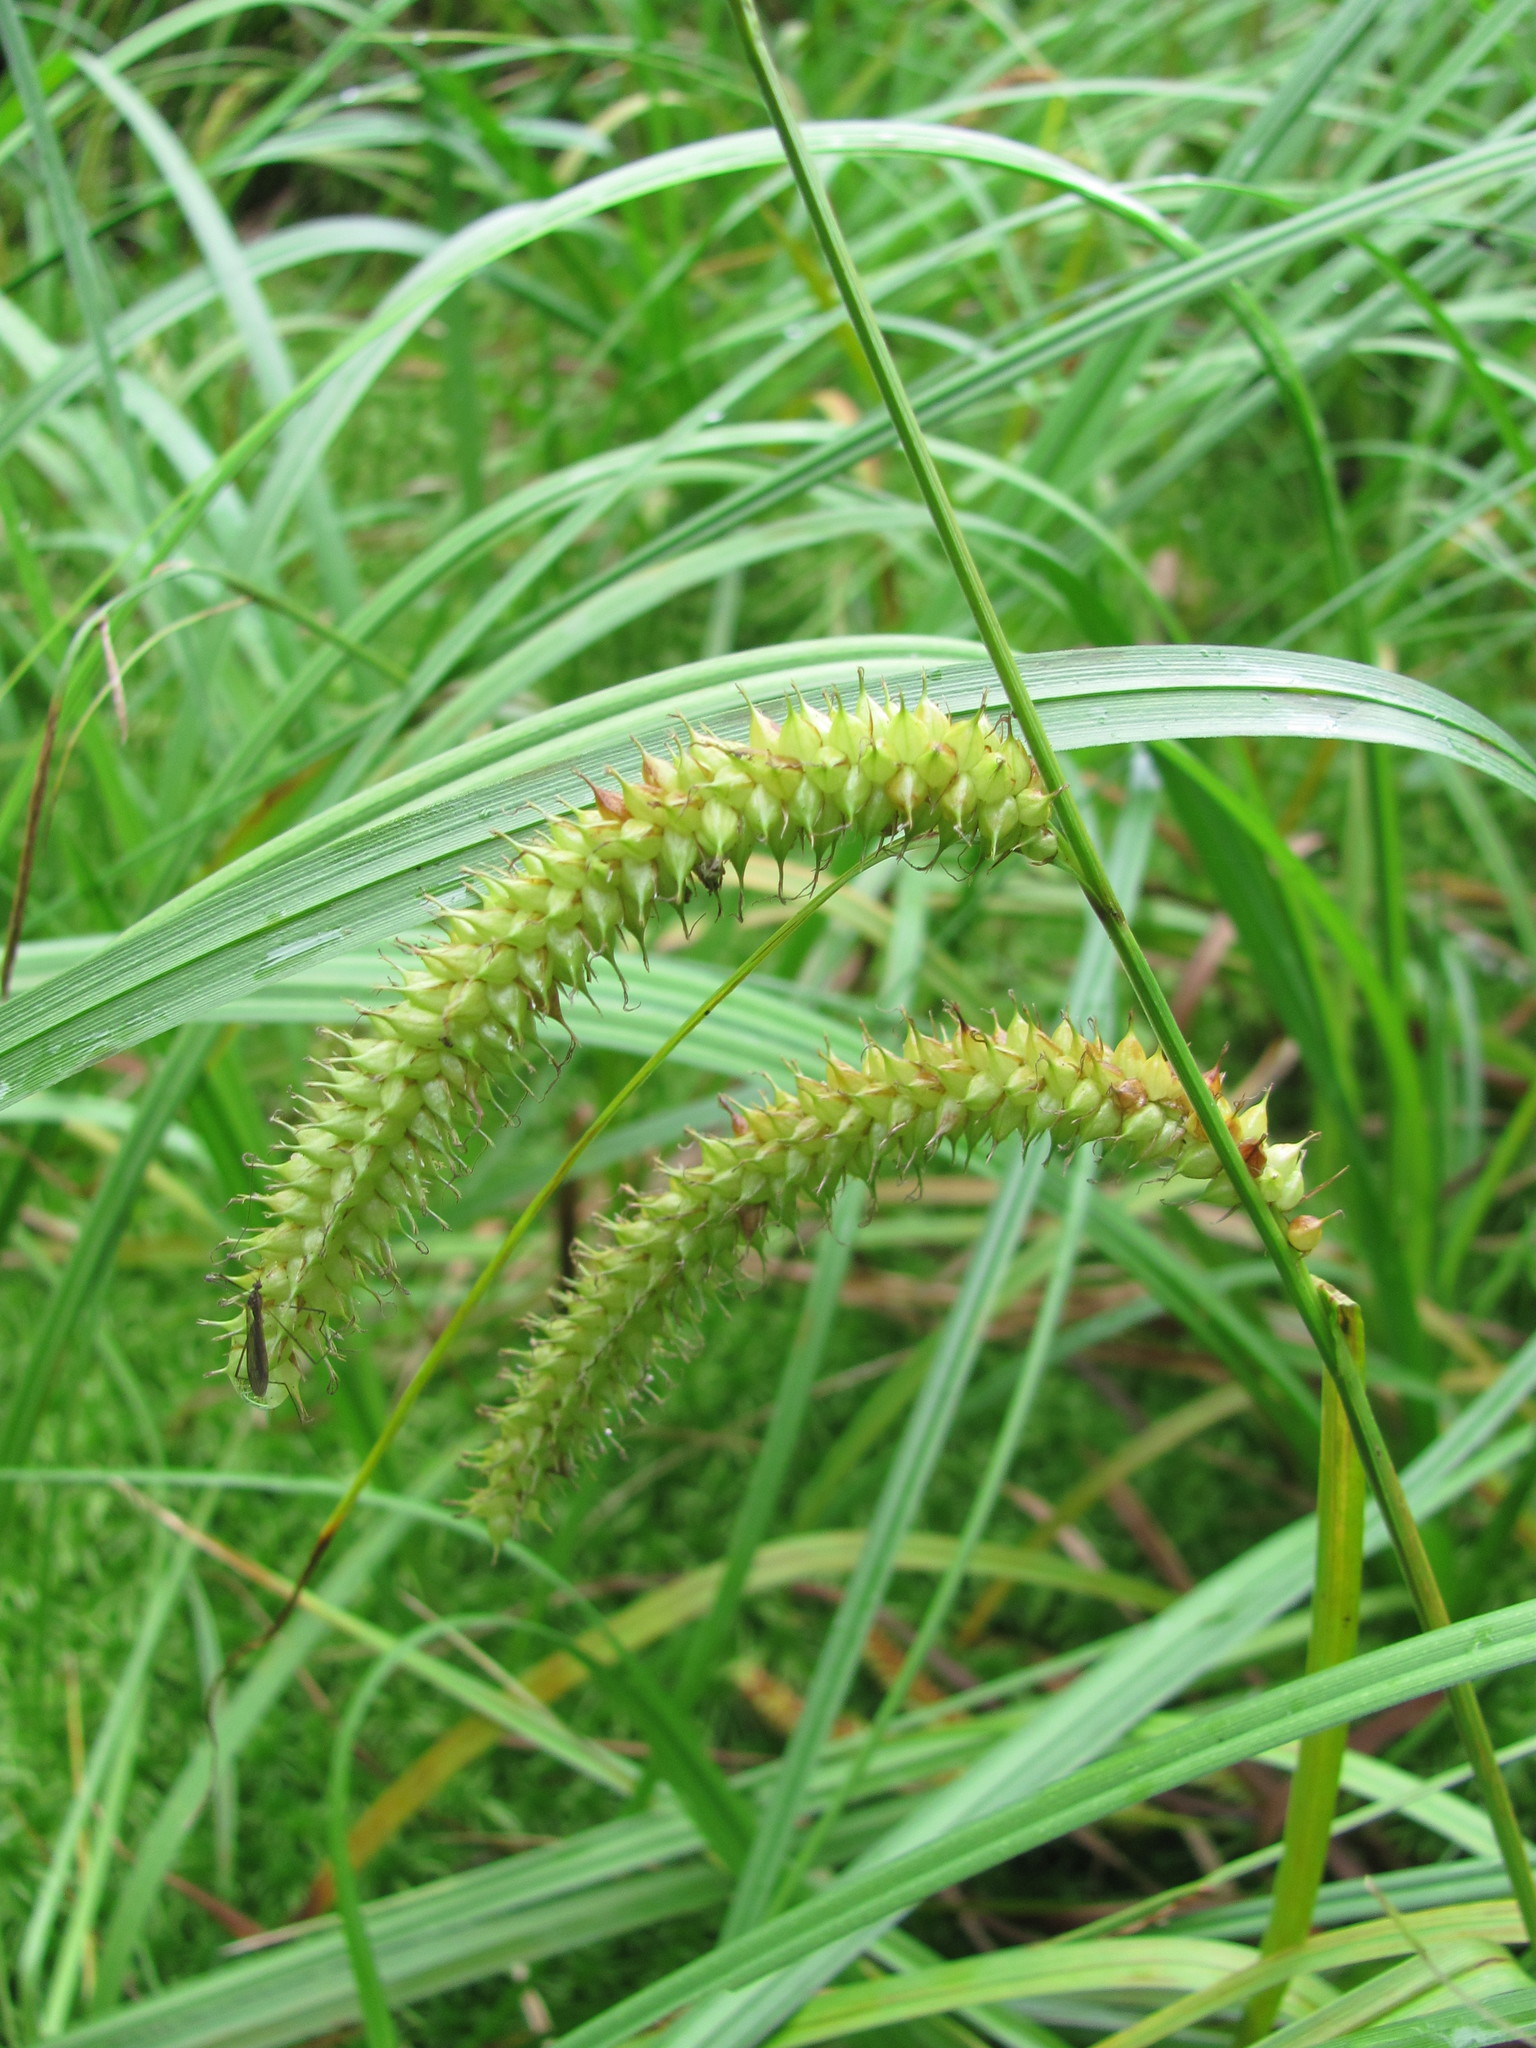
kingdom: Plantae
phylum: Tracheophyta
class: Liliopsida
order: Poales
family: Cyperaceae
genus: Carex
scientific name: Carex rostrata
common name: Bottle sedge
